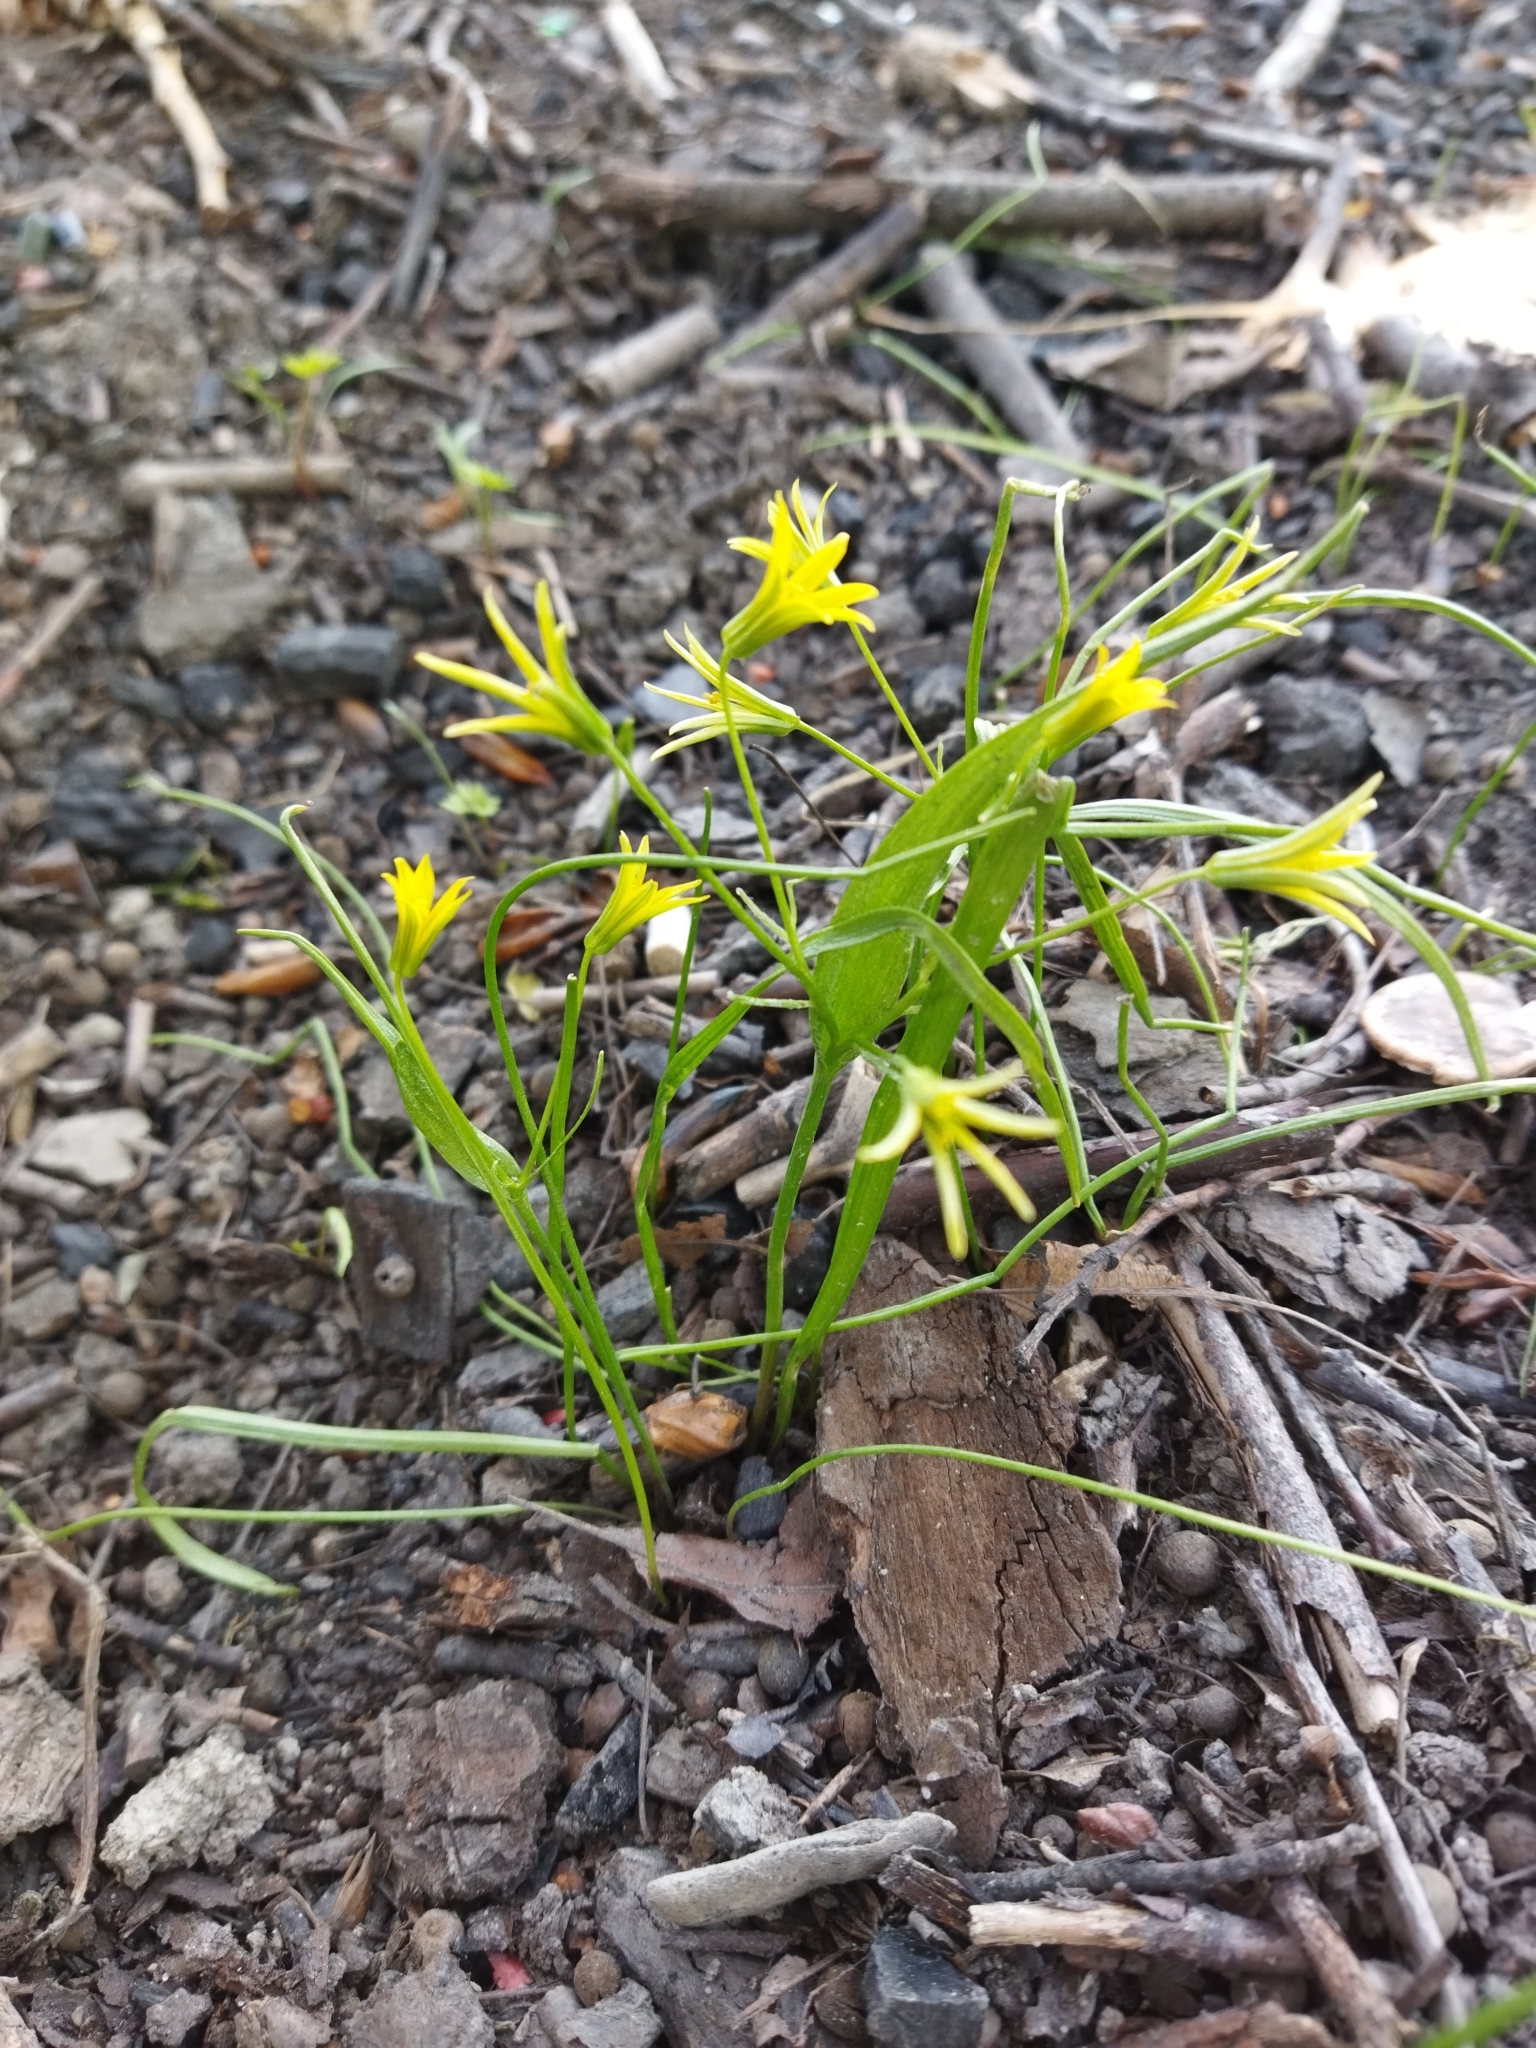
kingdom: Plantae
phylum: Tracheophyta
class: Liliopsida
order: Liliales
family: Liliaceae
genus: Gagea
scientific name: Gagea minima
